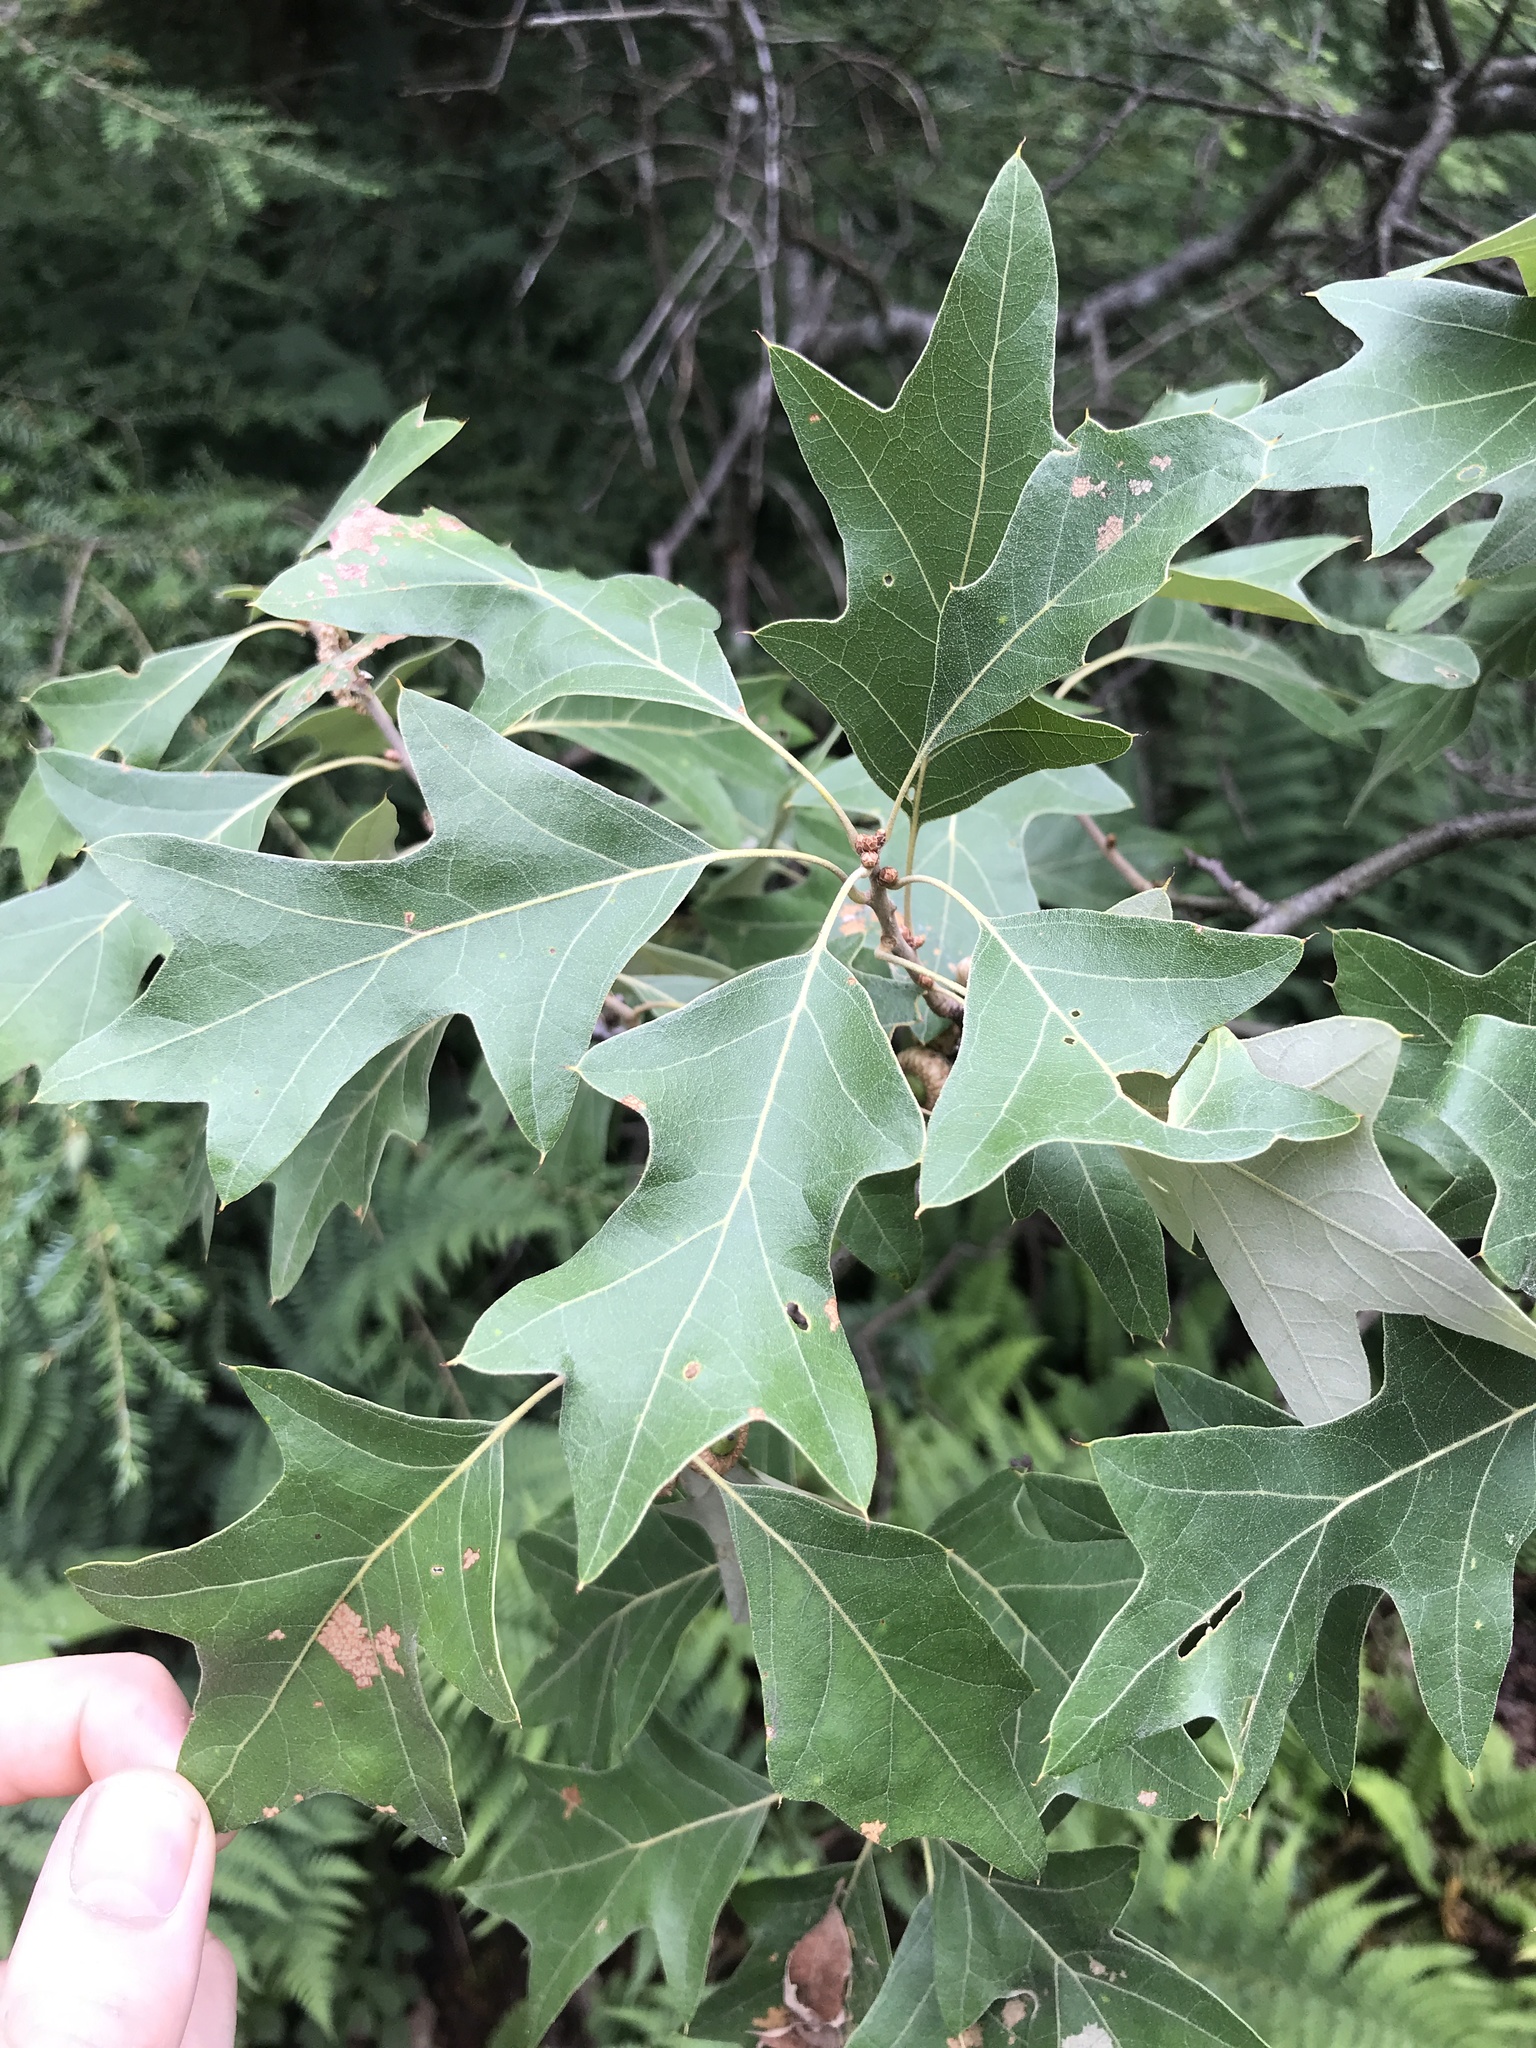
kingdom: Plantae
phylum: Tracheophyta
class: Magnoliopsida
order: Fagales
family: Fagaceae
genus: Quercus
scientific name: Quercus ilicifolia
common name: Bear oak
